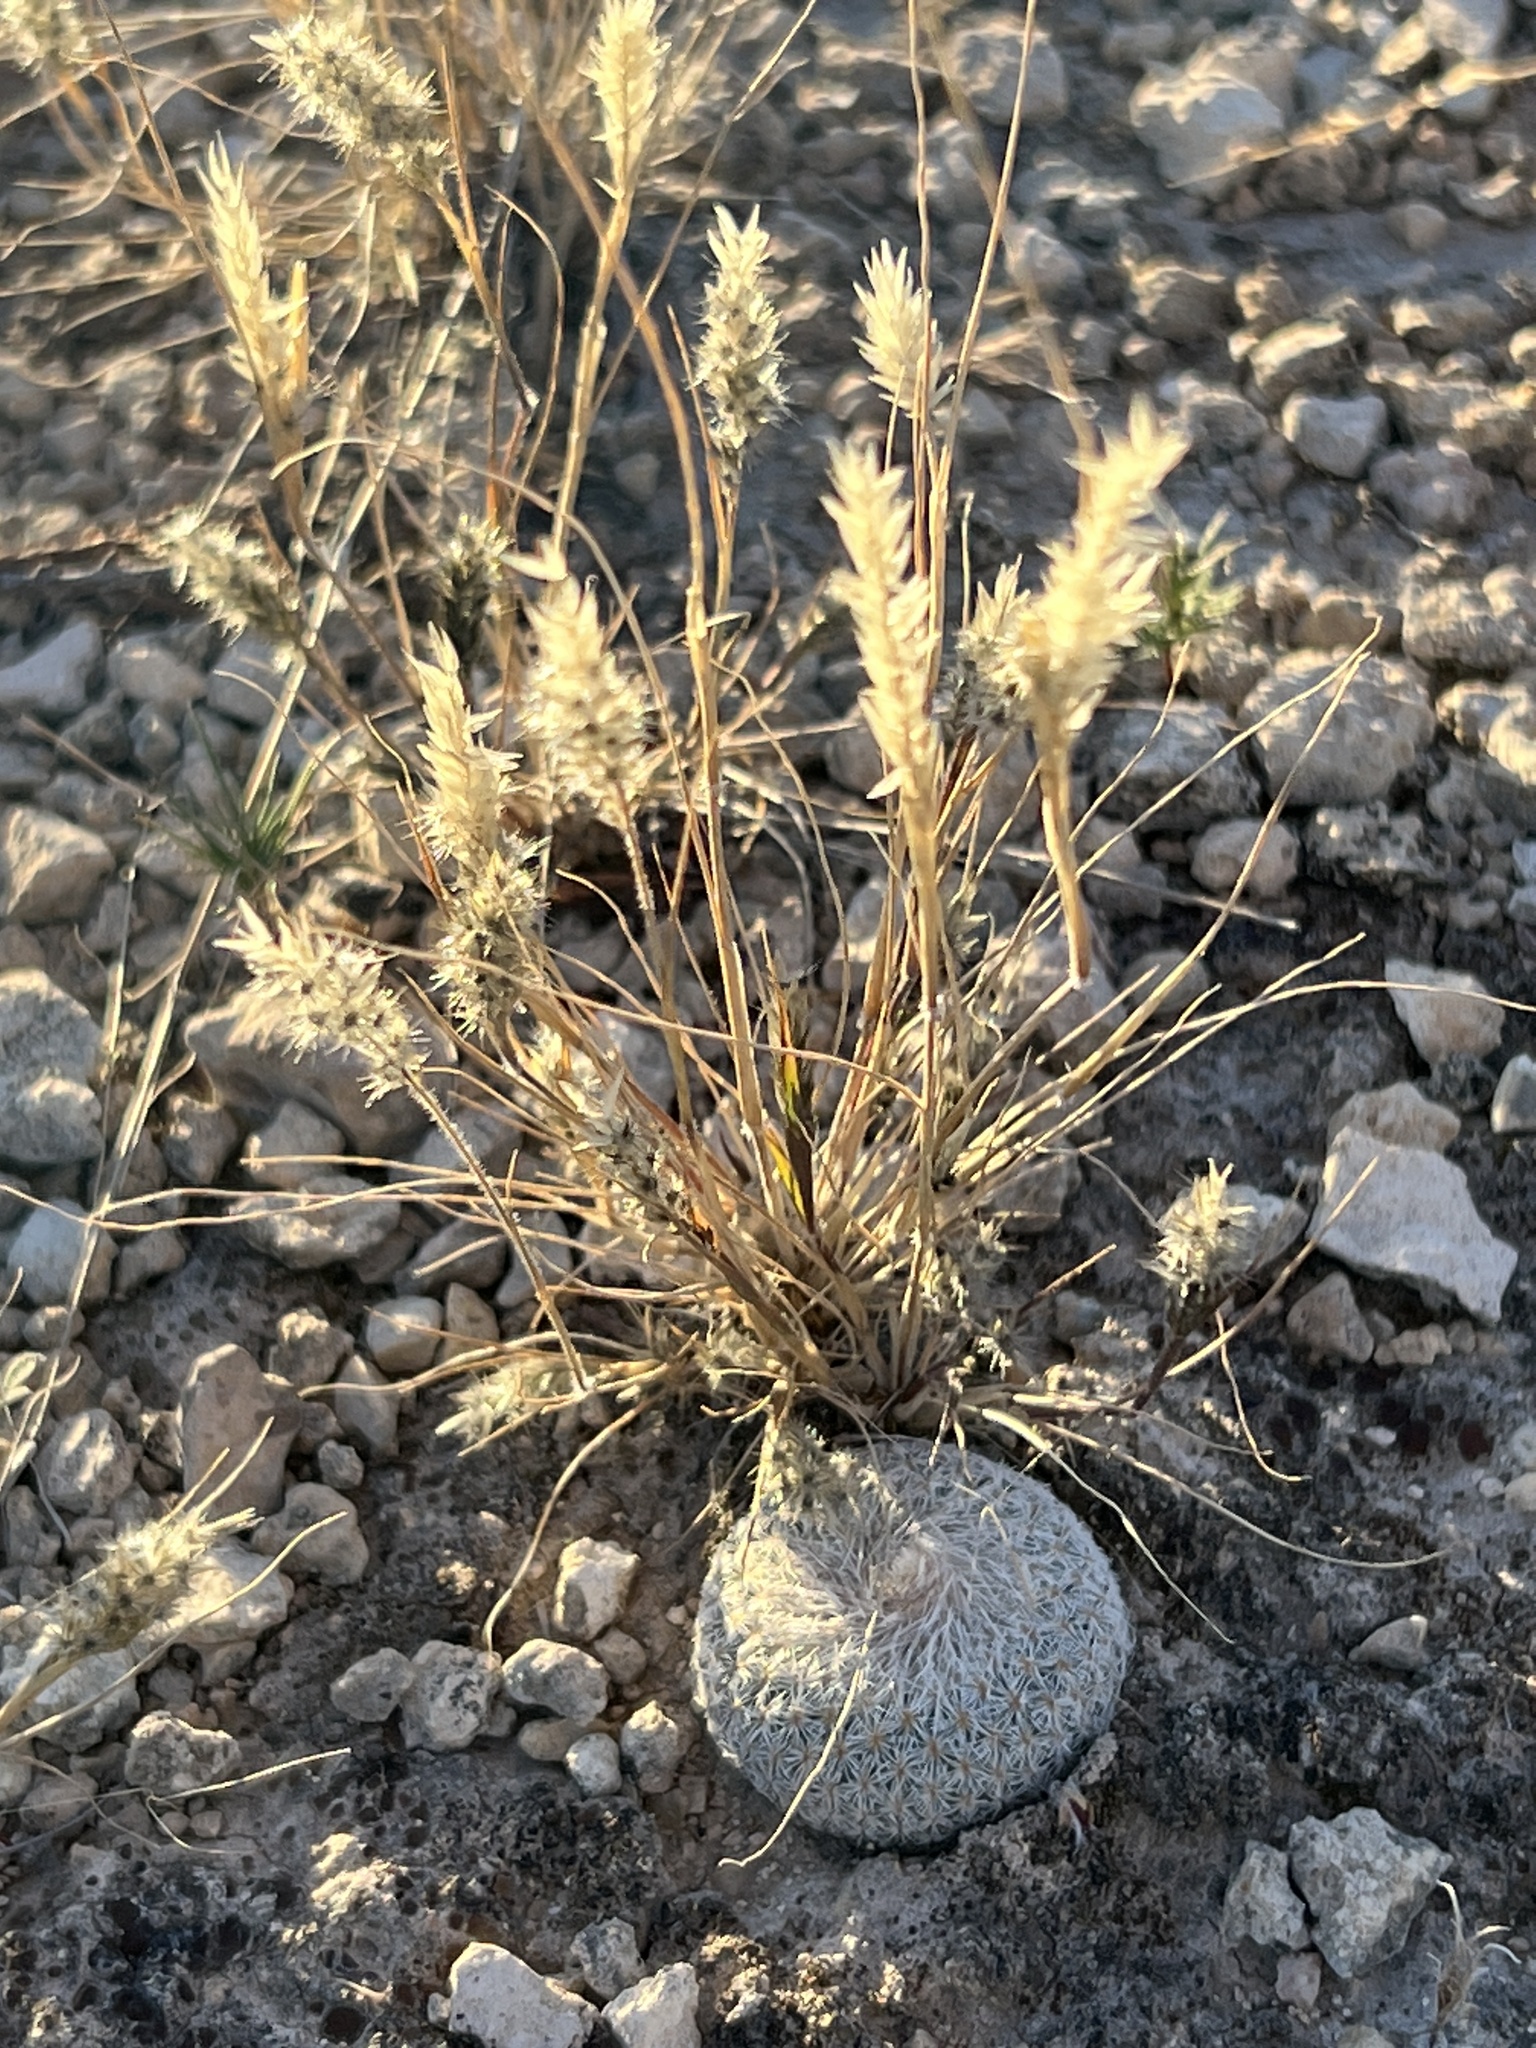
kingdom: Plantae
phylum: Tracheophyta
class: Liliopsida
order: Poales
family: Poaceae
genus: Enneapogon
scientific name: Enneapogon desvauxii
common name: Feather pappus grass
